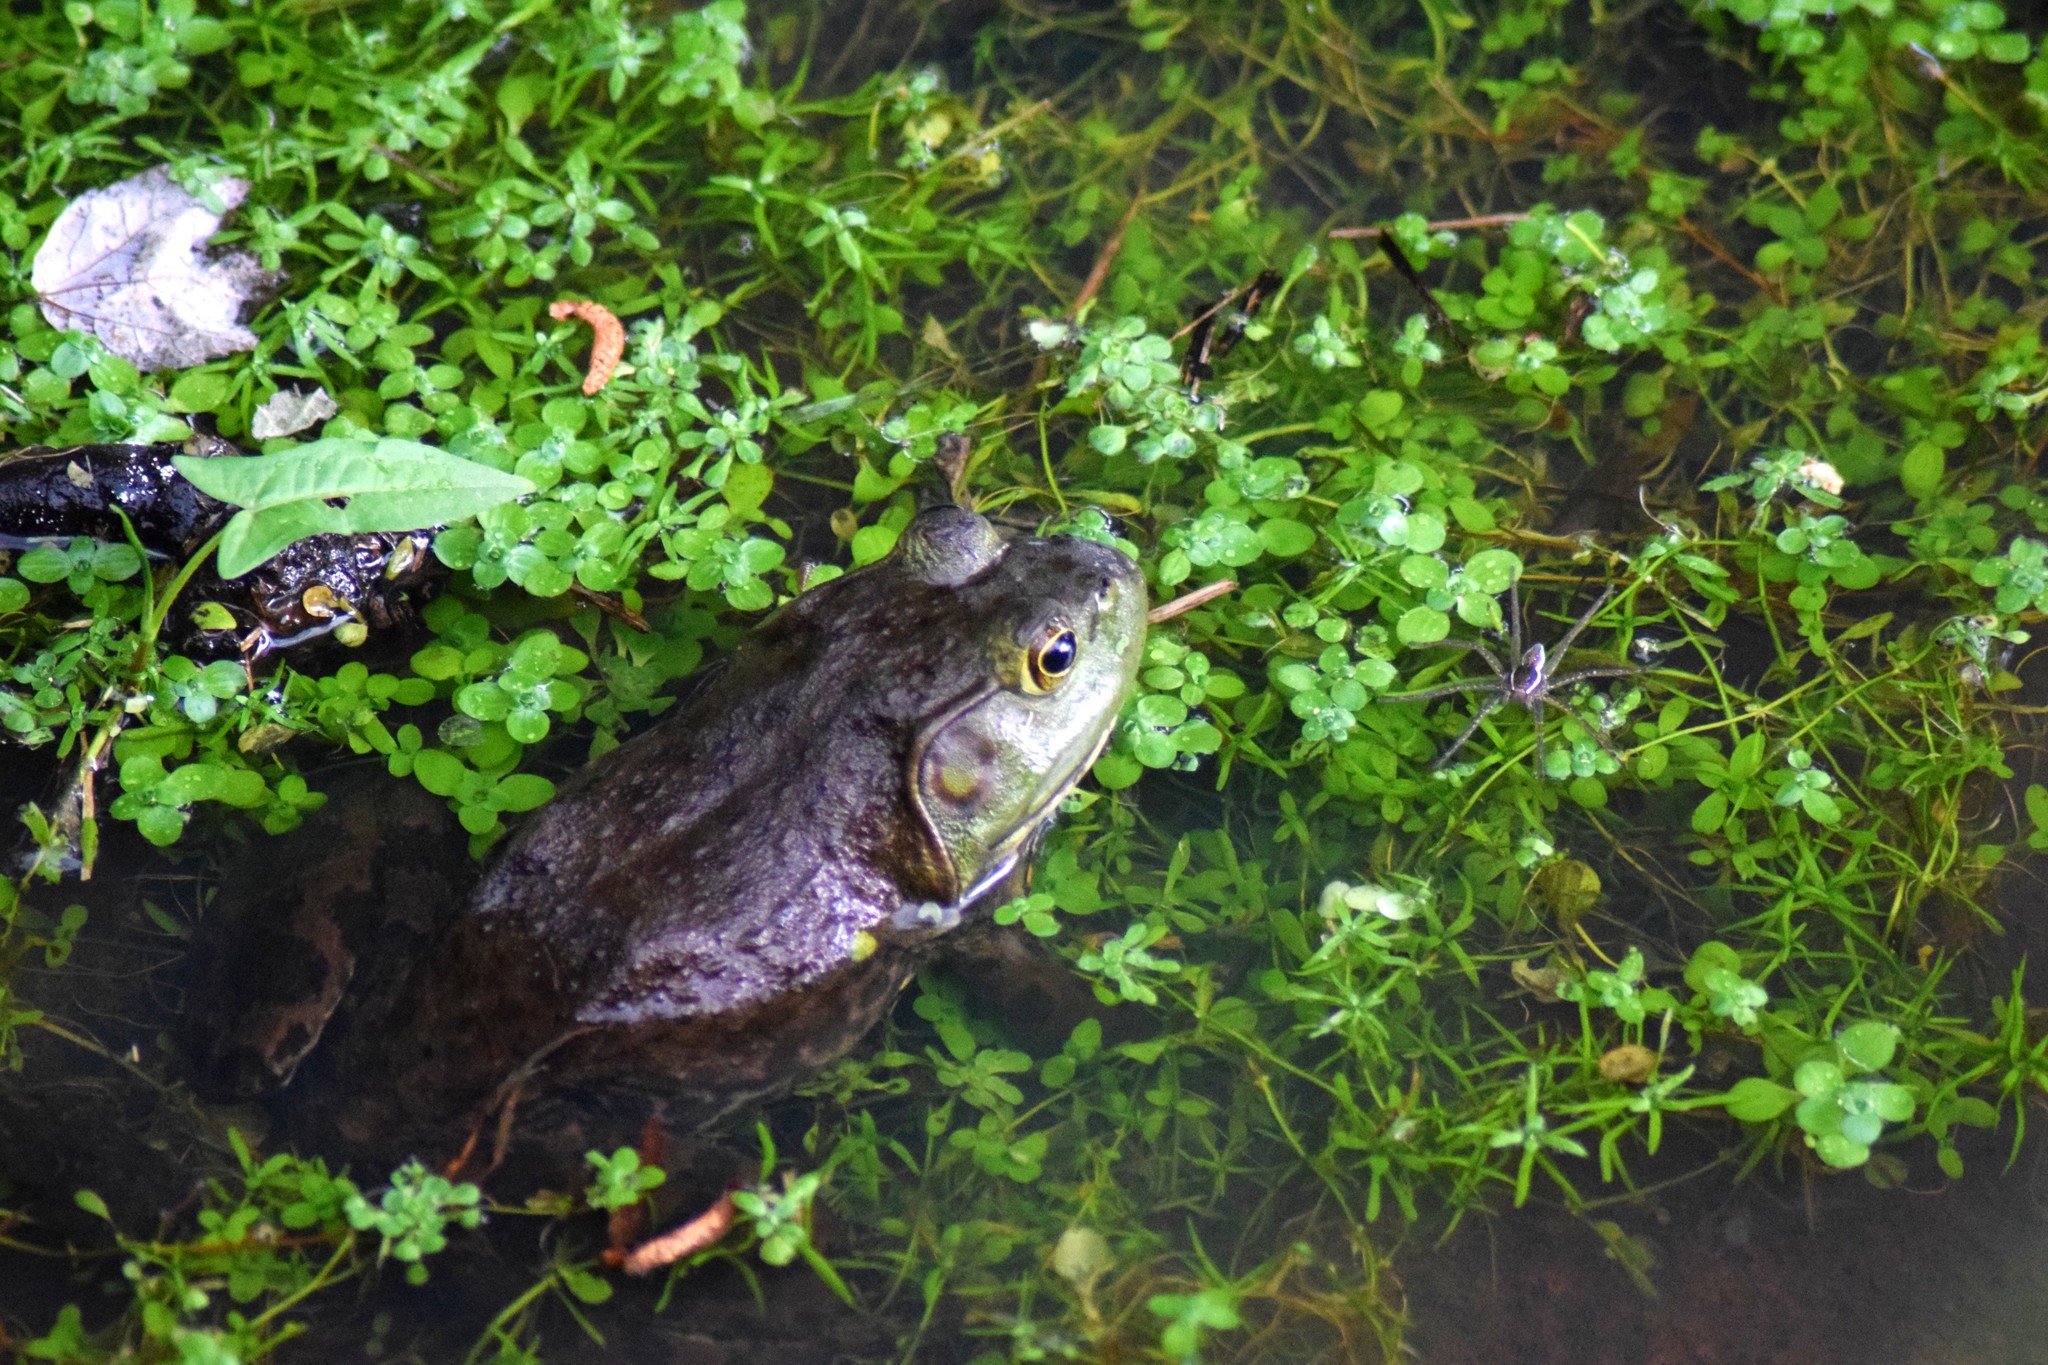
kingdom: Animalia
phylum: Chordata
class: Amphibia
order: Anura
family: Ranidae
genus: Lithobates
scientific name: Lithobates catesbeianus
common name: American bullfrog
